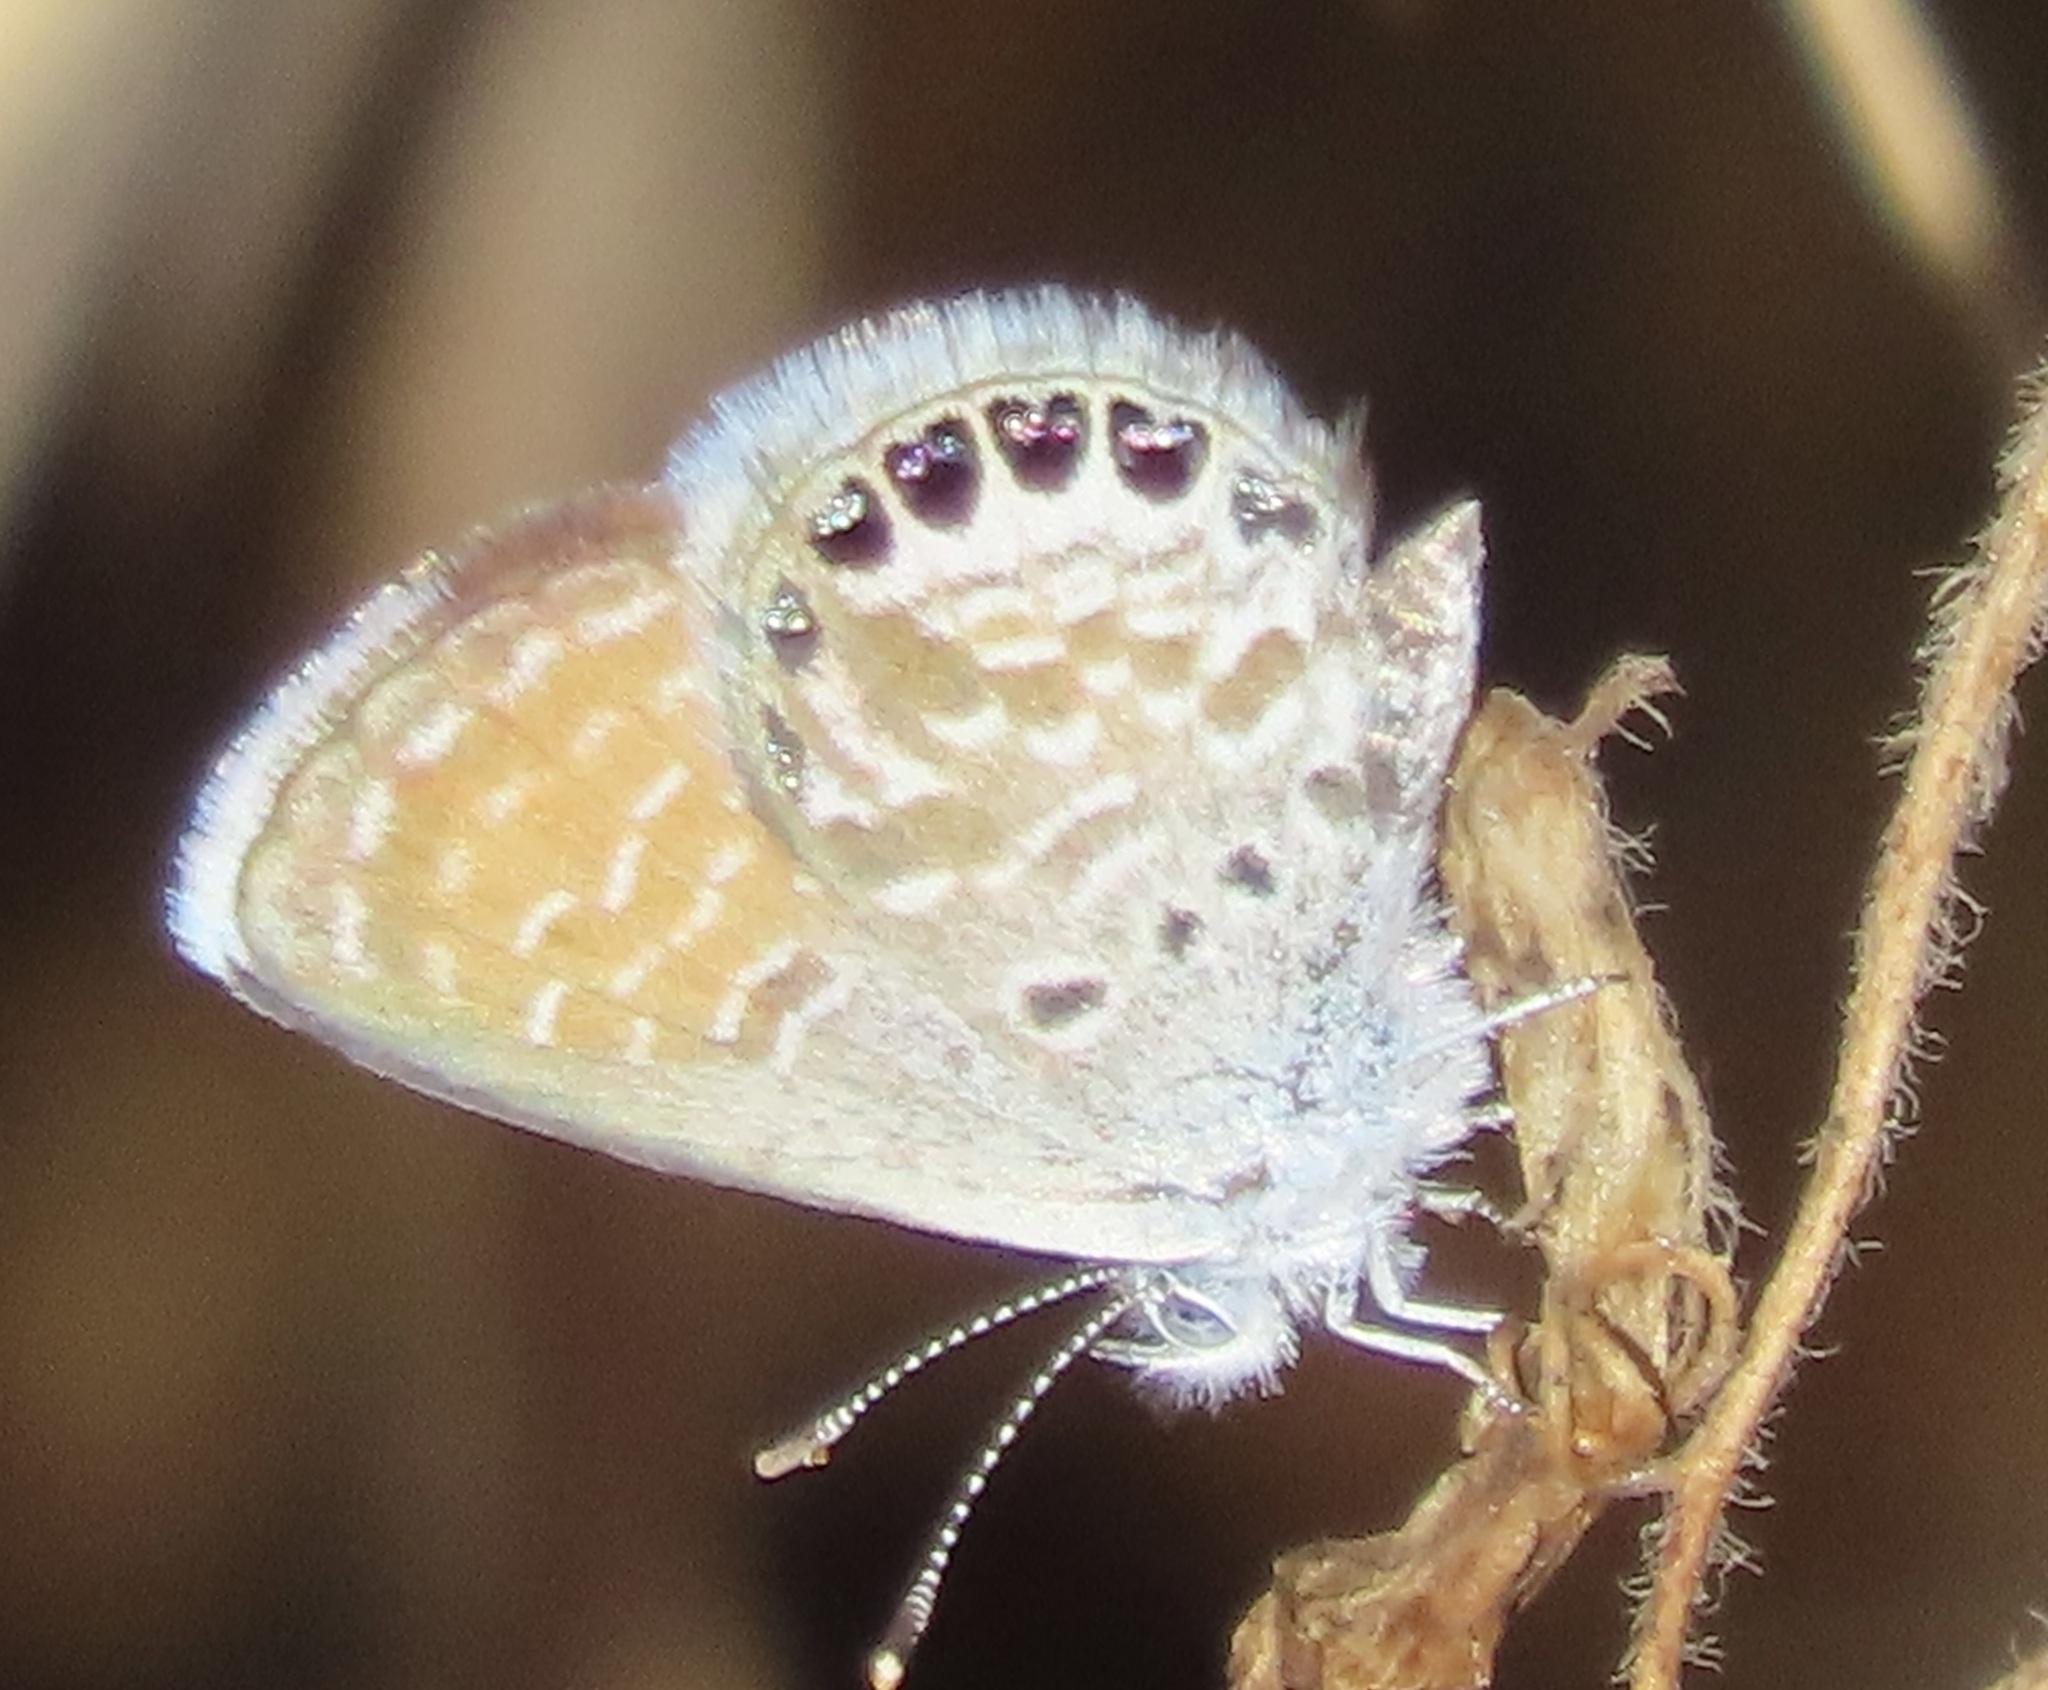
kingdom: Animalia
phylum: Arthropoda
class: Insecta
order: Lepidoptera
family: Lycaenidae
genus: Brephidium
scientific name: Brephidium exilis
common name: Pygmy blue
